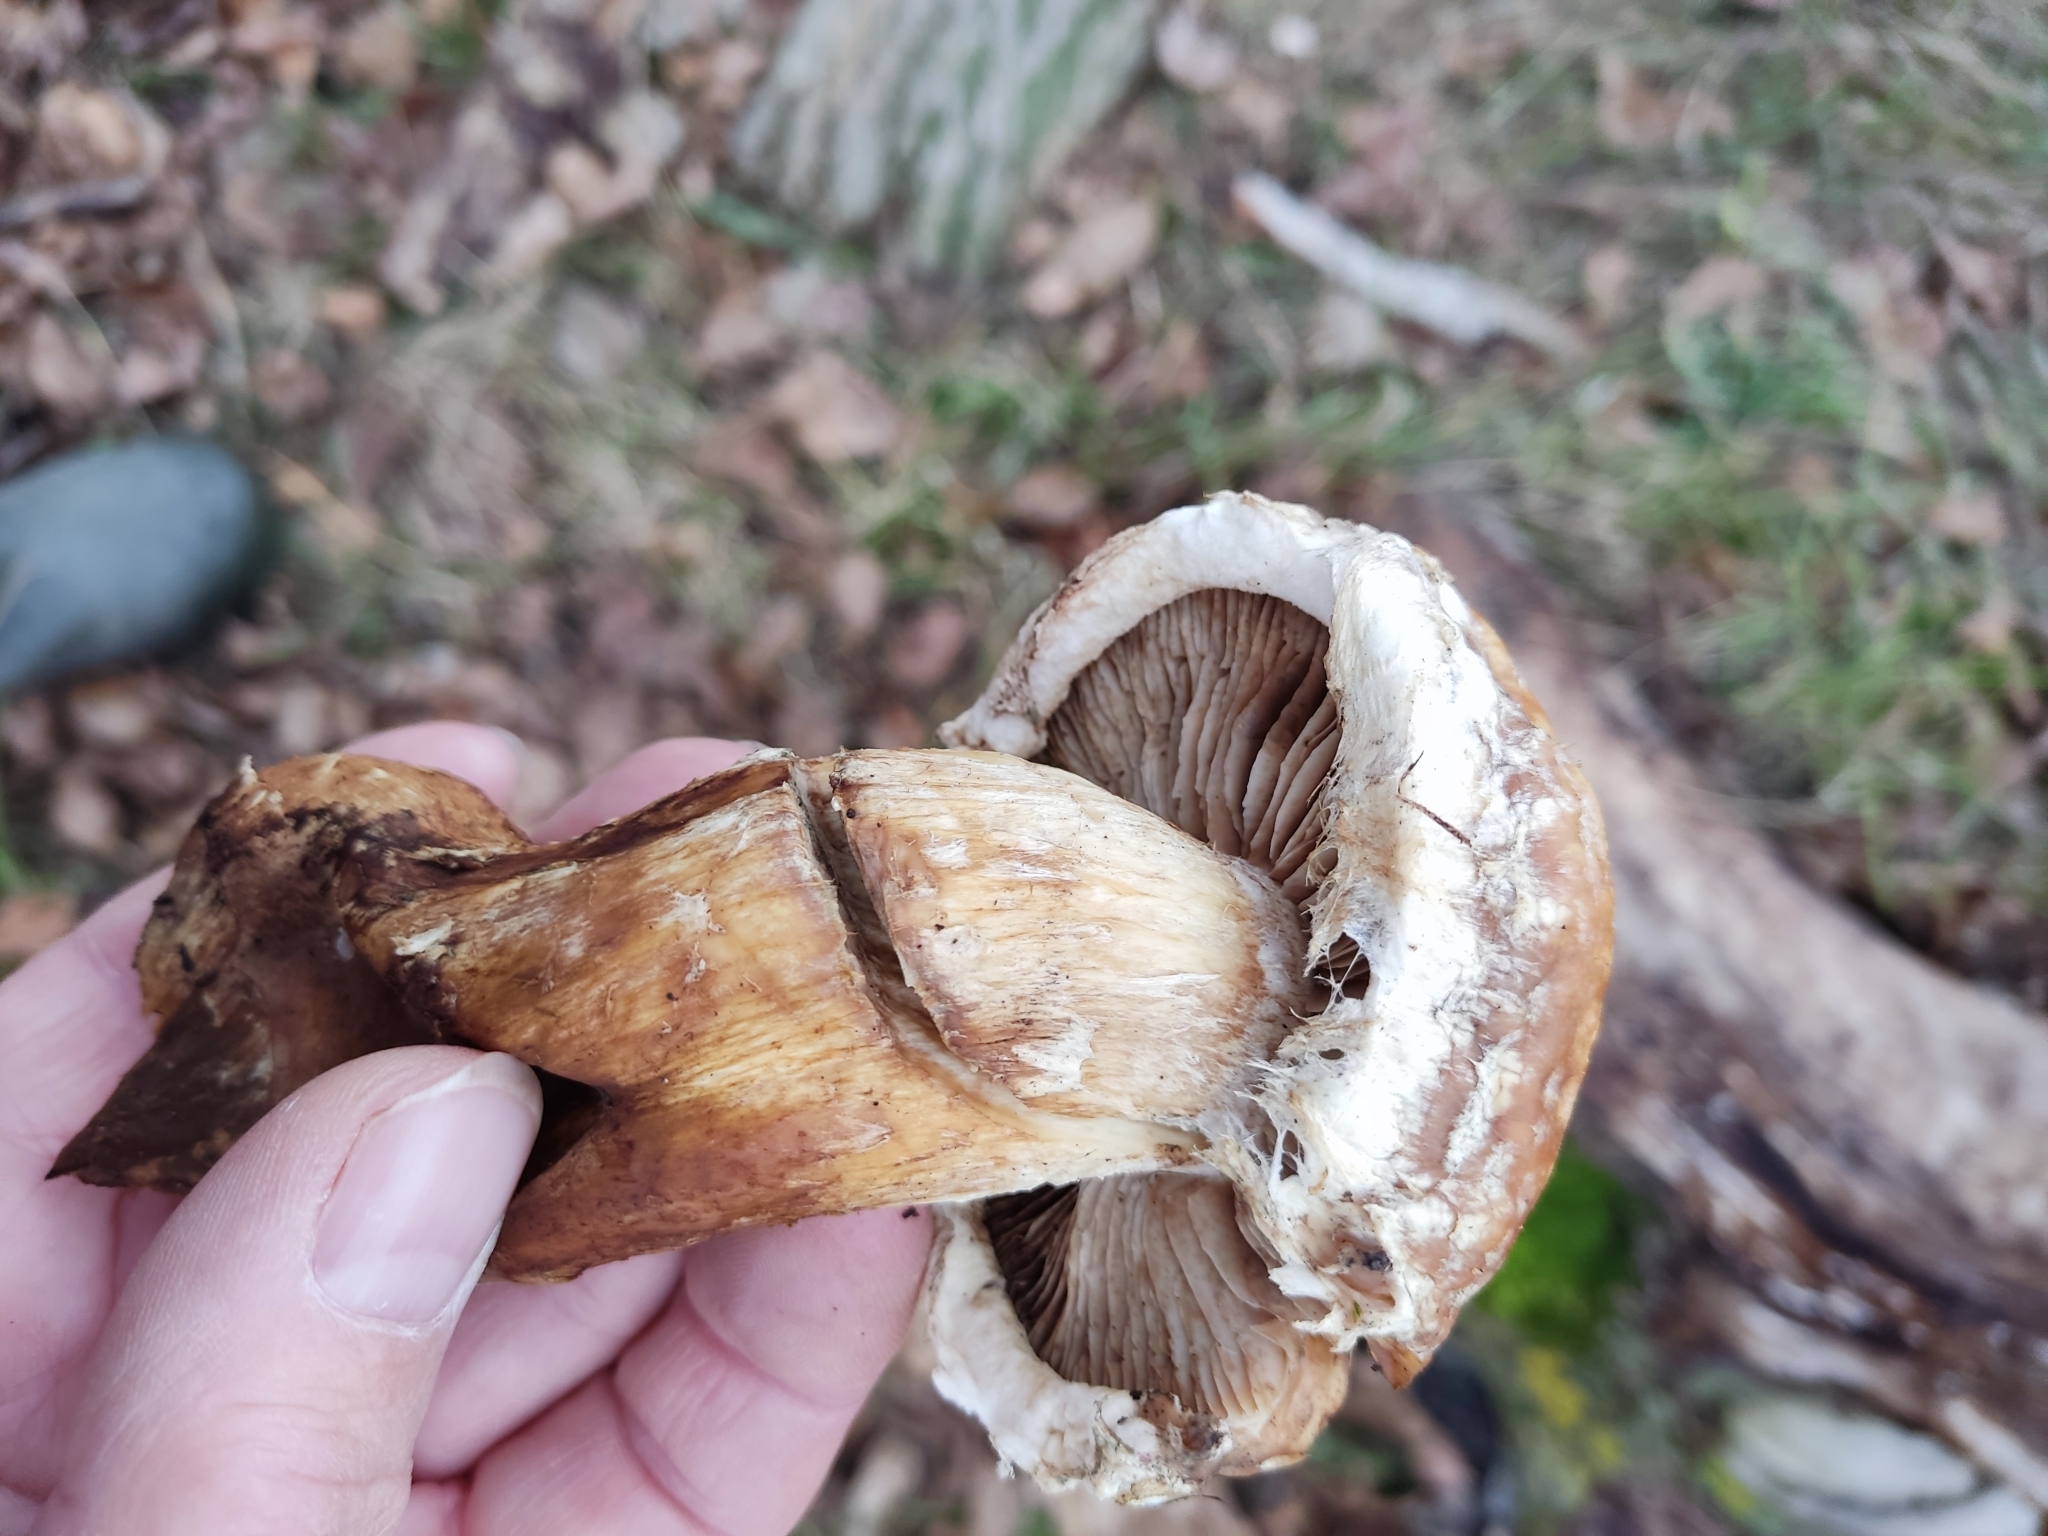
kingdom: Fungi
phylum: Basidiomycota
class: Agaricomycetes
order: Agaricales
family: Strophariaceae
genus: Pholiota
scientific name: Pholiota populnea
